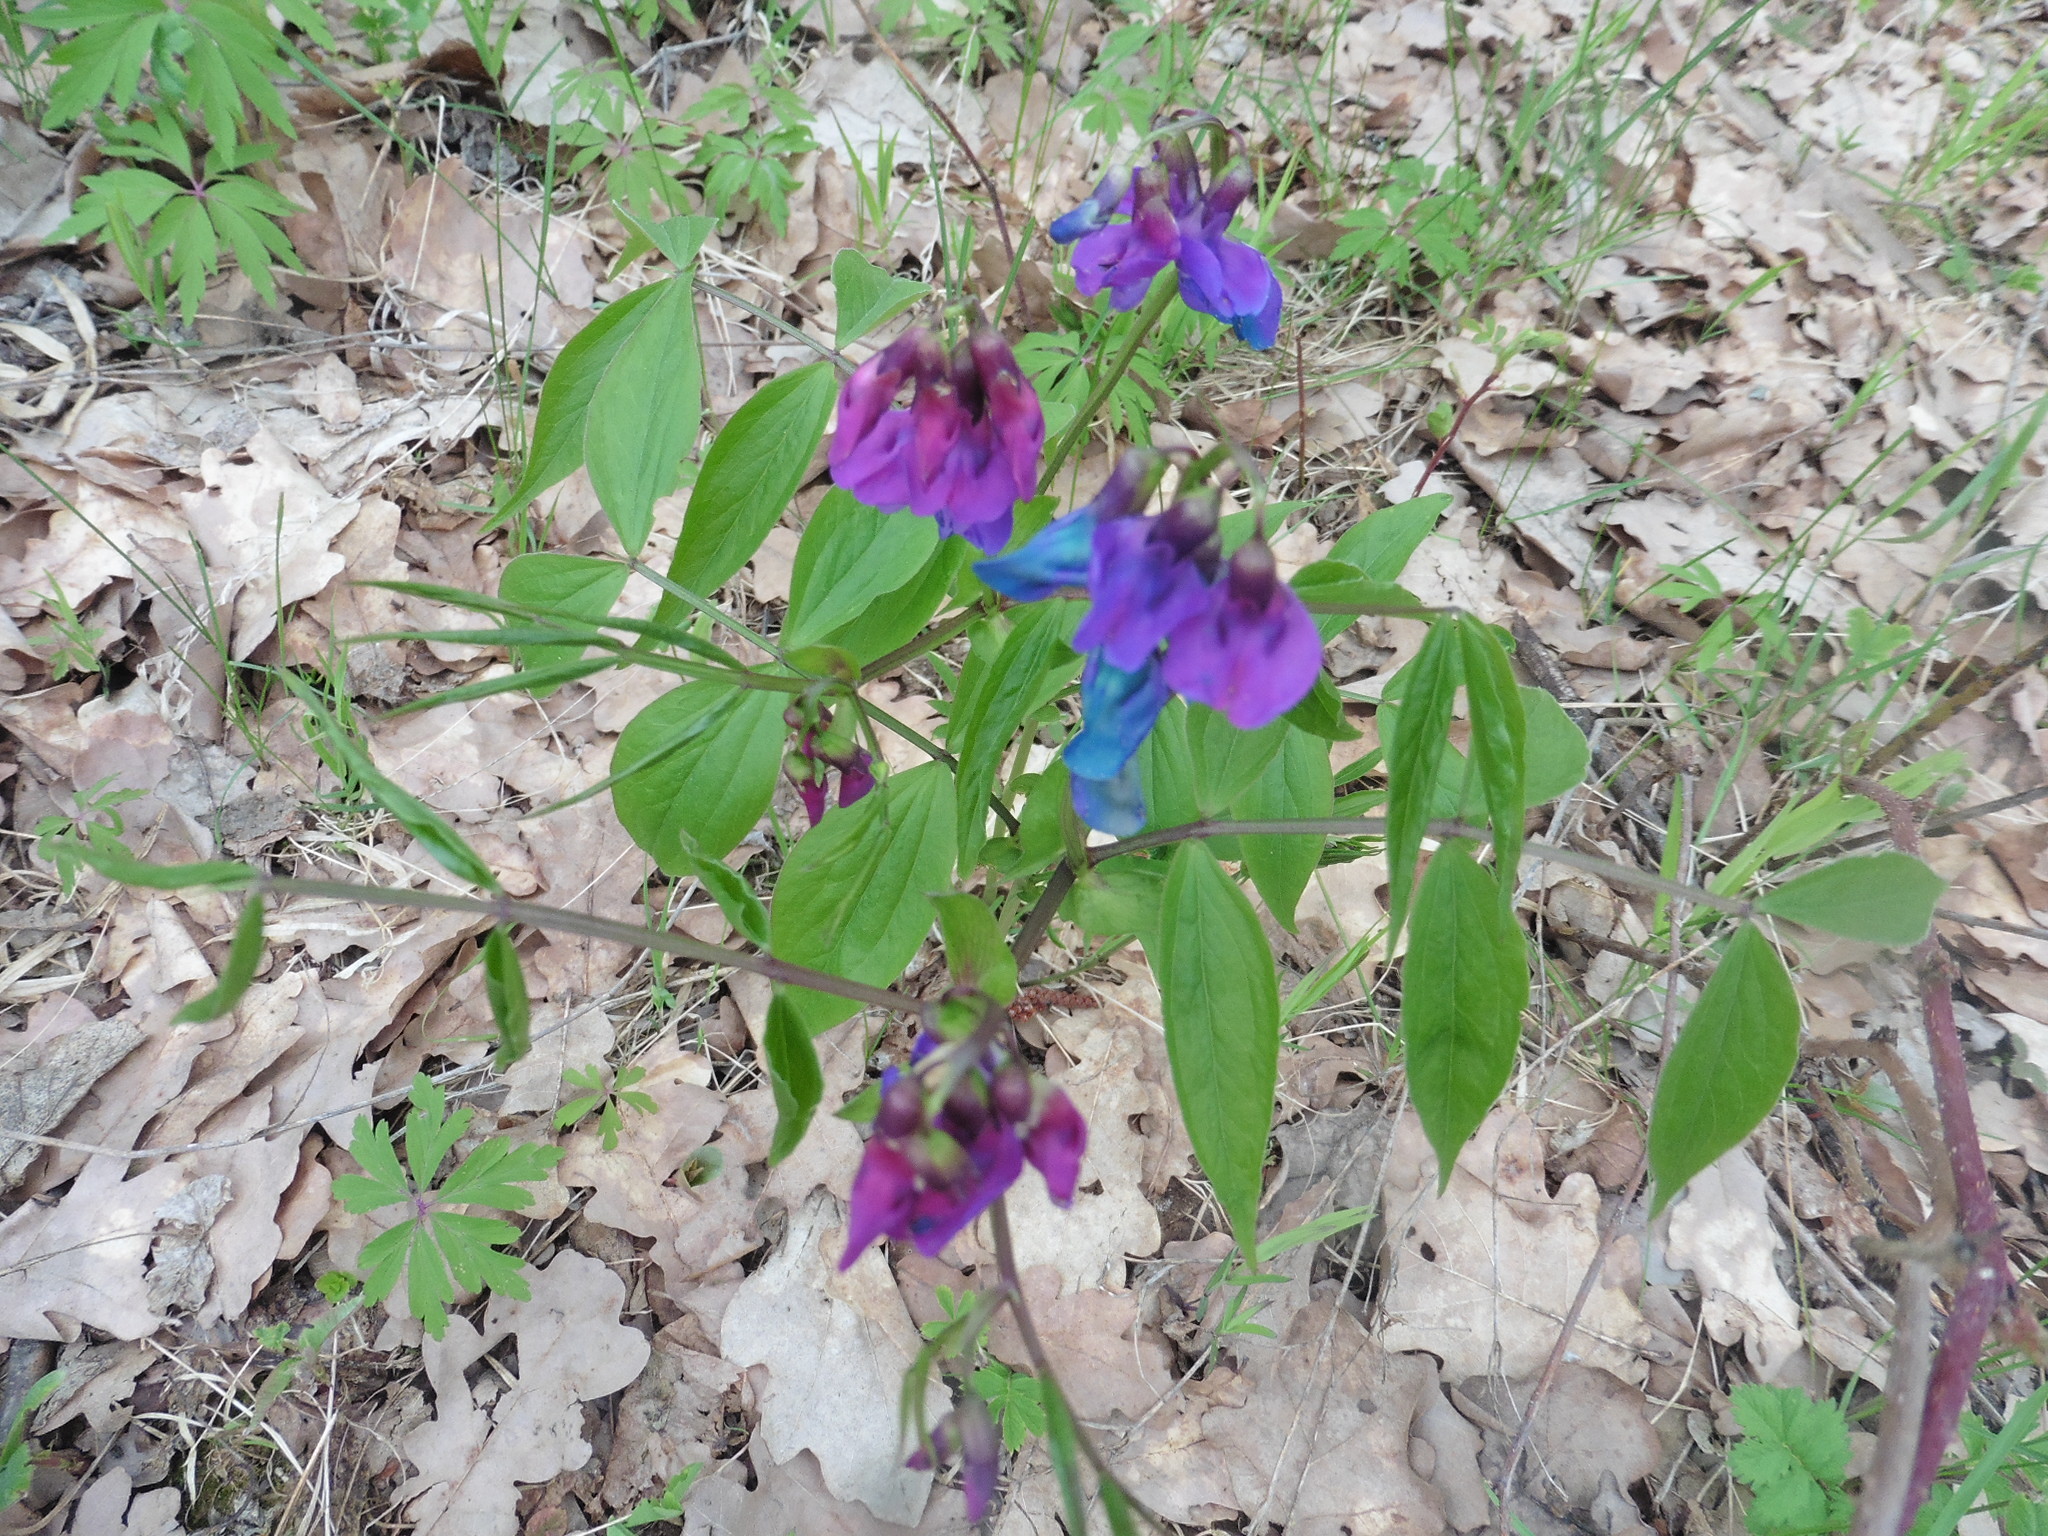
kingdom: Plantae
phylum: Tracheophyta
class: Magnoliopsida
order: Fabales
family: Fabaceae
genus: Lathyrus
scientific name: Lathyrus vernus
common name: Spring pea
